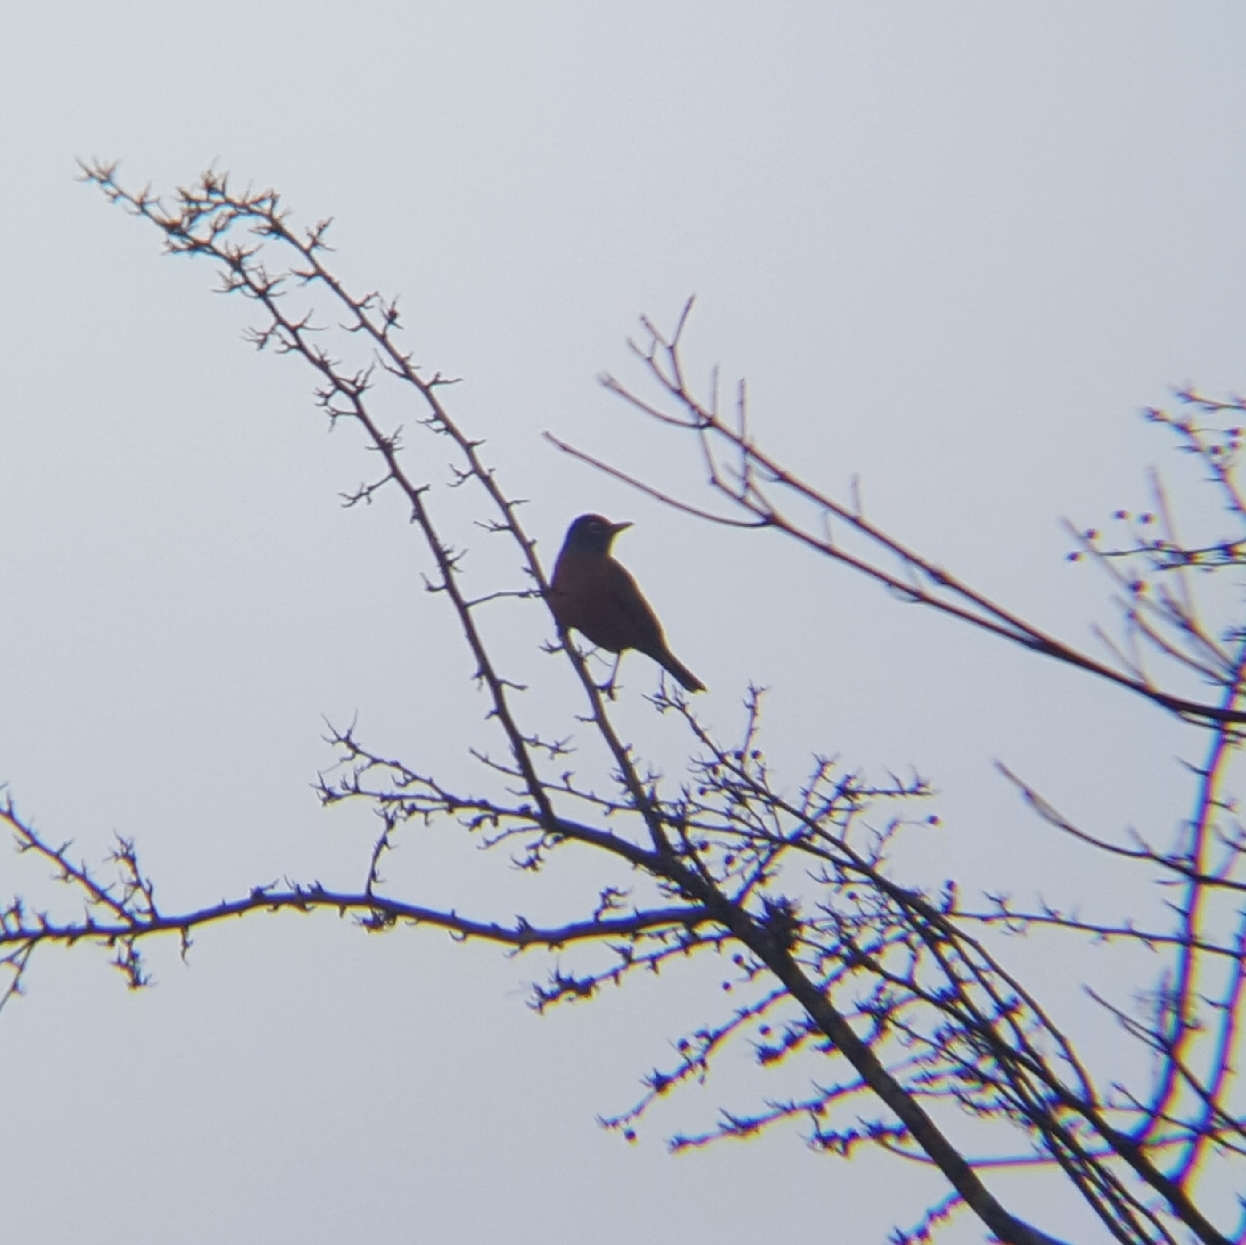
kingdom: Animalia
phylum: Chordata
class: Aves
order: Passeriformes
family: Turdidae
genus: Turdus
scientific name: Turdus migratorius
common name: American robin
